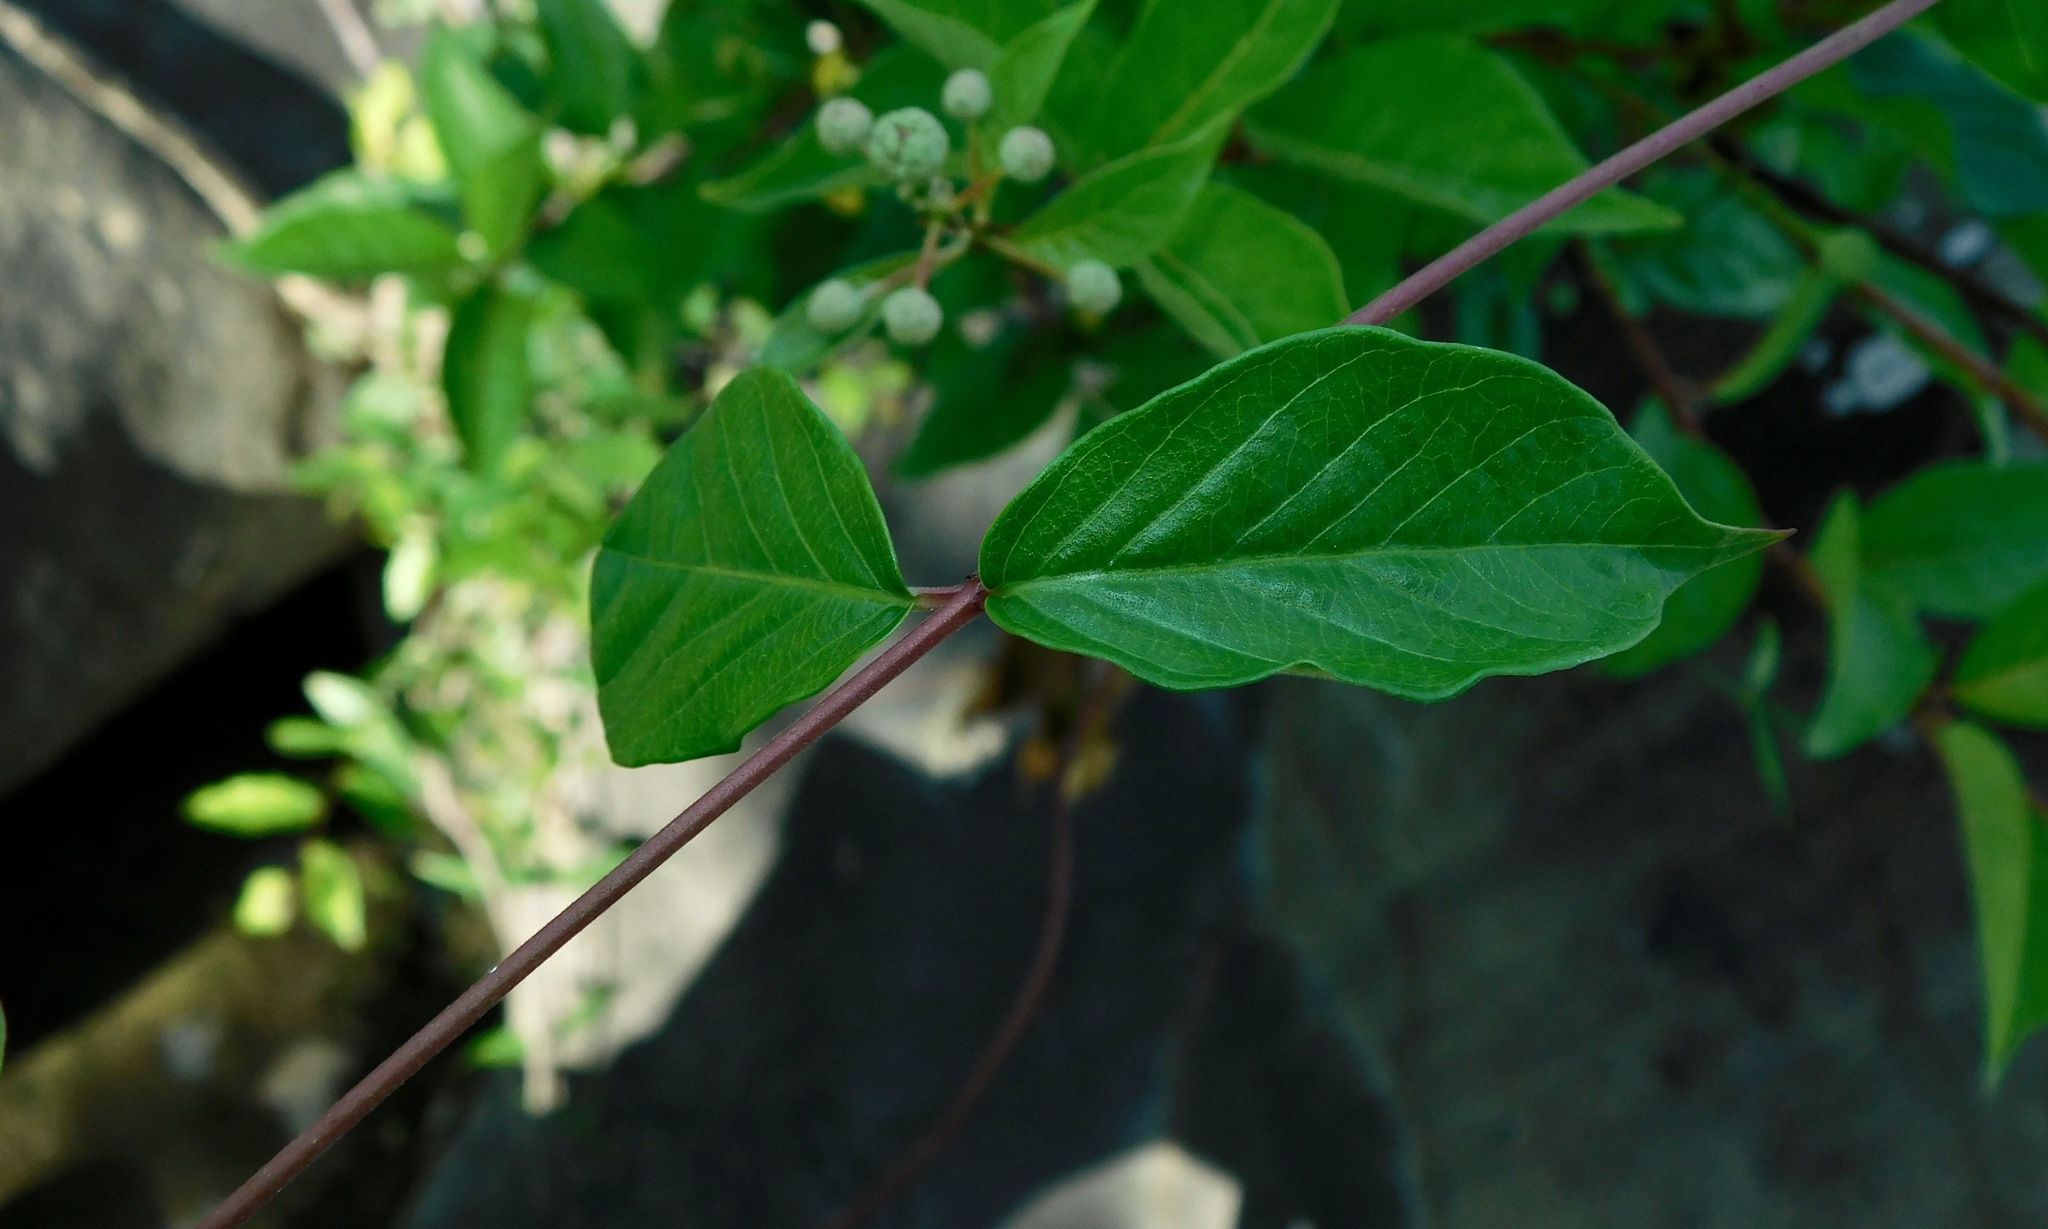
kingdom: Plantae
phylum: Tracheophyta
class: Magnoliopsida
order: Gentianales
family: Apocynaceae
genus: Thyrsanthella
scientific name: Thyrsanthella difformis
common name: Climbing dogbane
